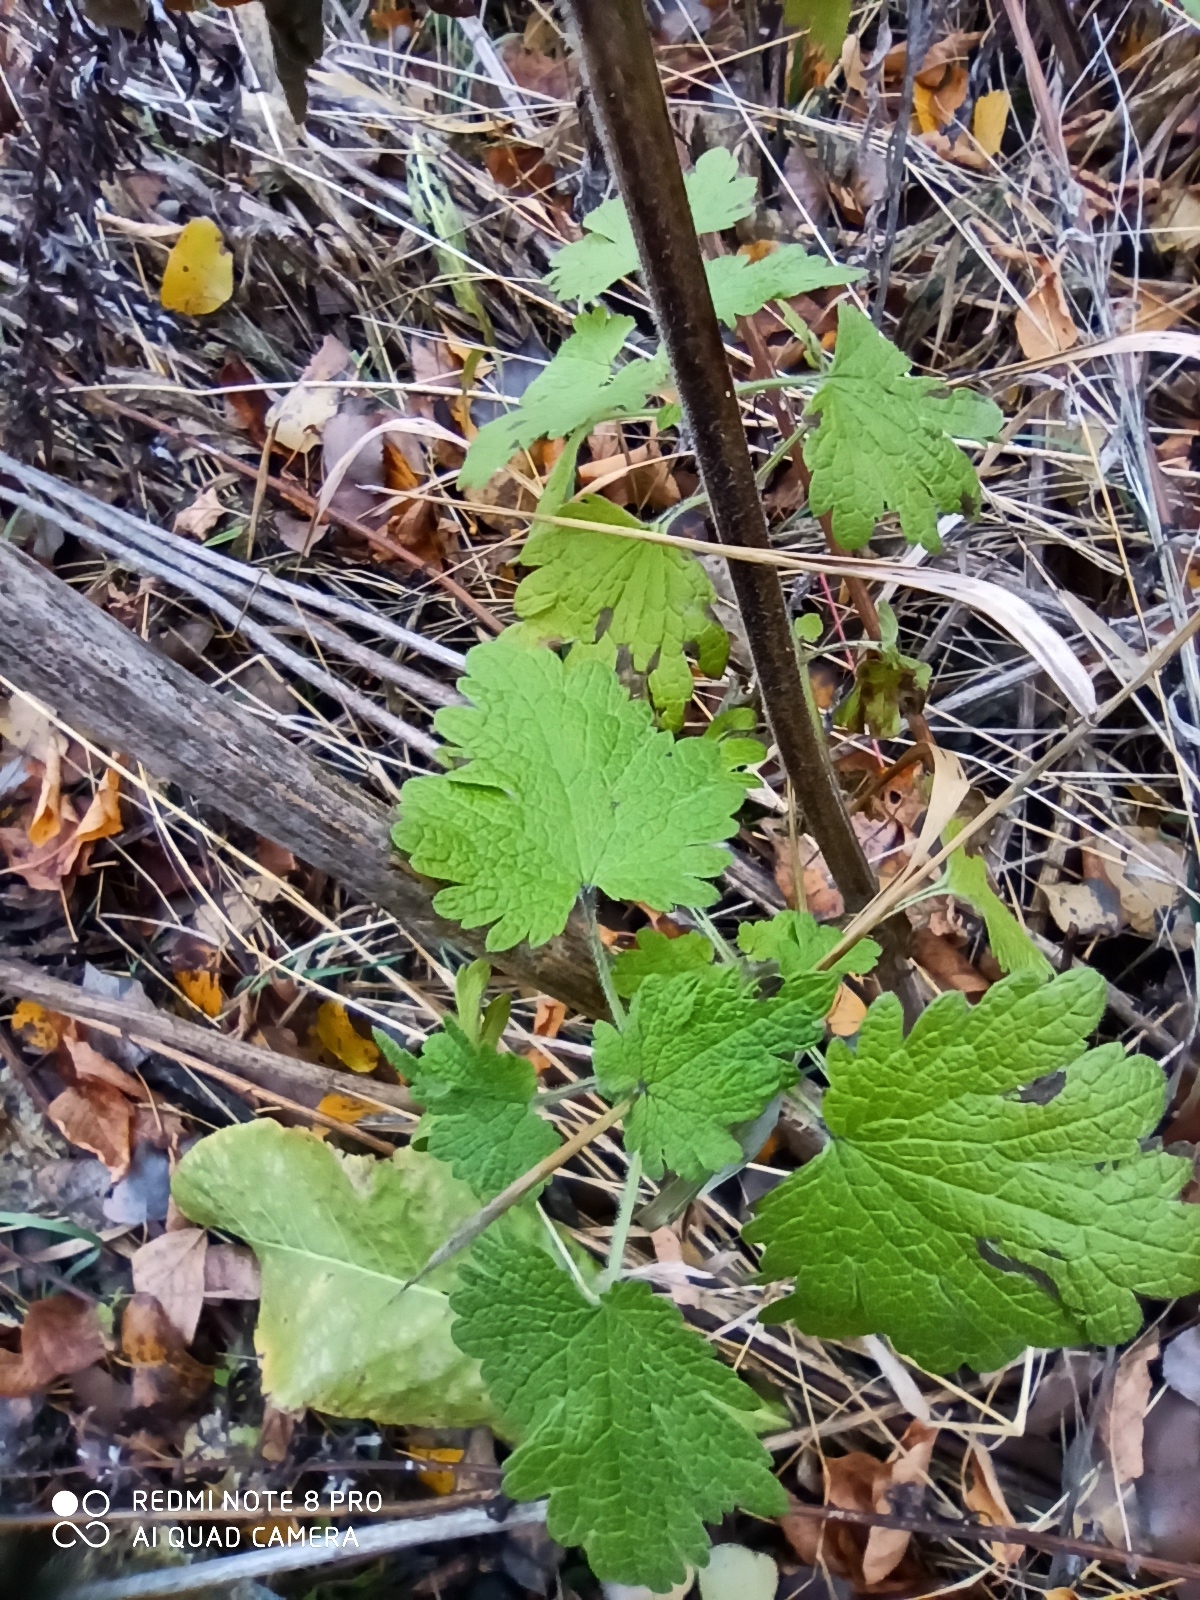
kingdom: Plantae
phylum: Tracheophyta
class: Magnoliopsida
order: Lamiales
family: Lamiaceae
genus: Leonurus
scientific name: Leonurus quinquelobatus
